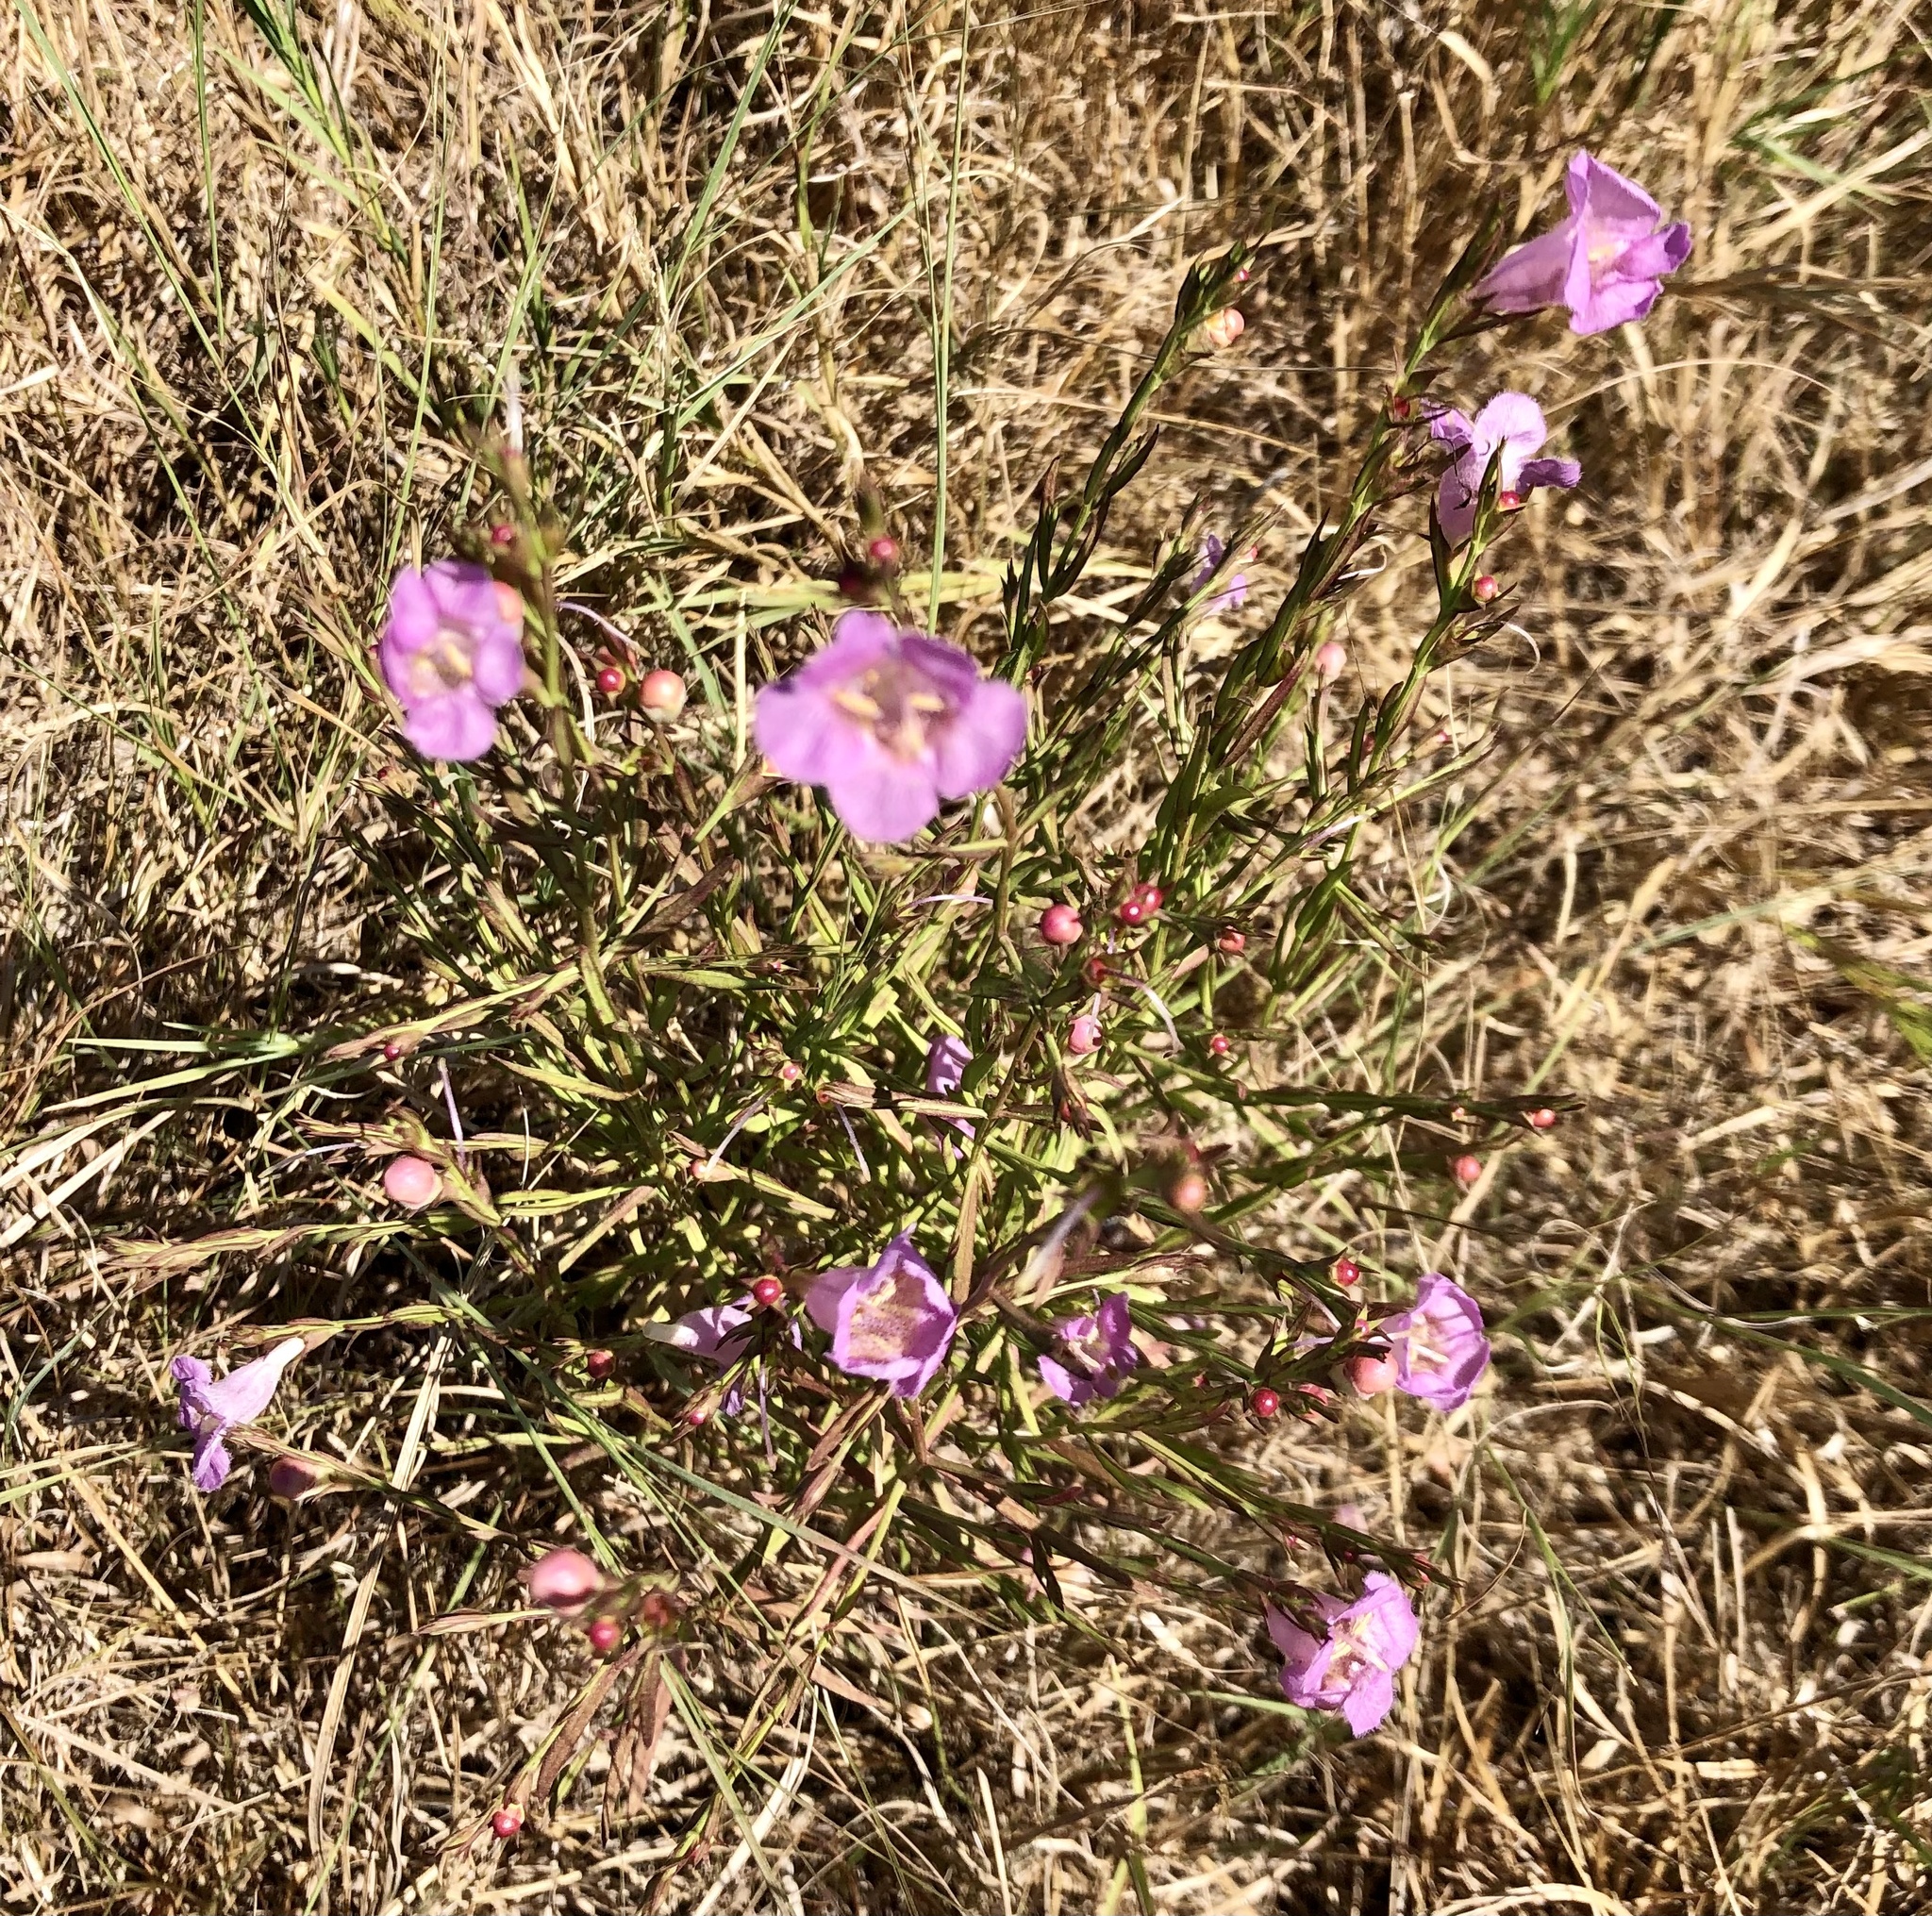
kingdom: Plantae
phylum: Tracheophyta
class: Magnoliopsida
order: Lamiales
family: Orobanchaceae
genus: Agalinis
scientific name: Agalinis heterophylla
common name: Prairie agalinis
